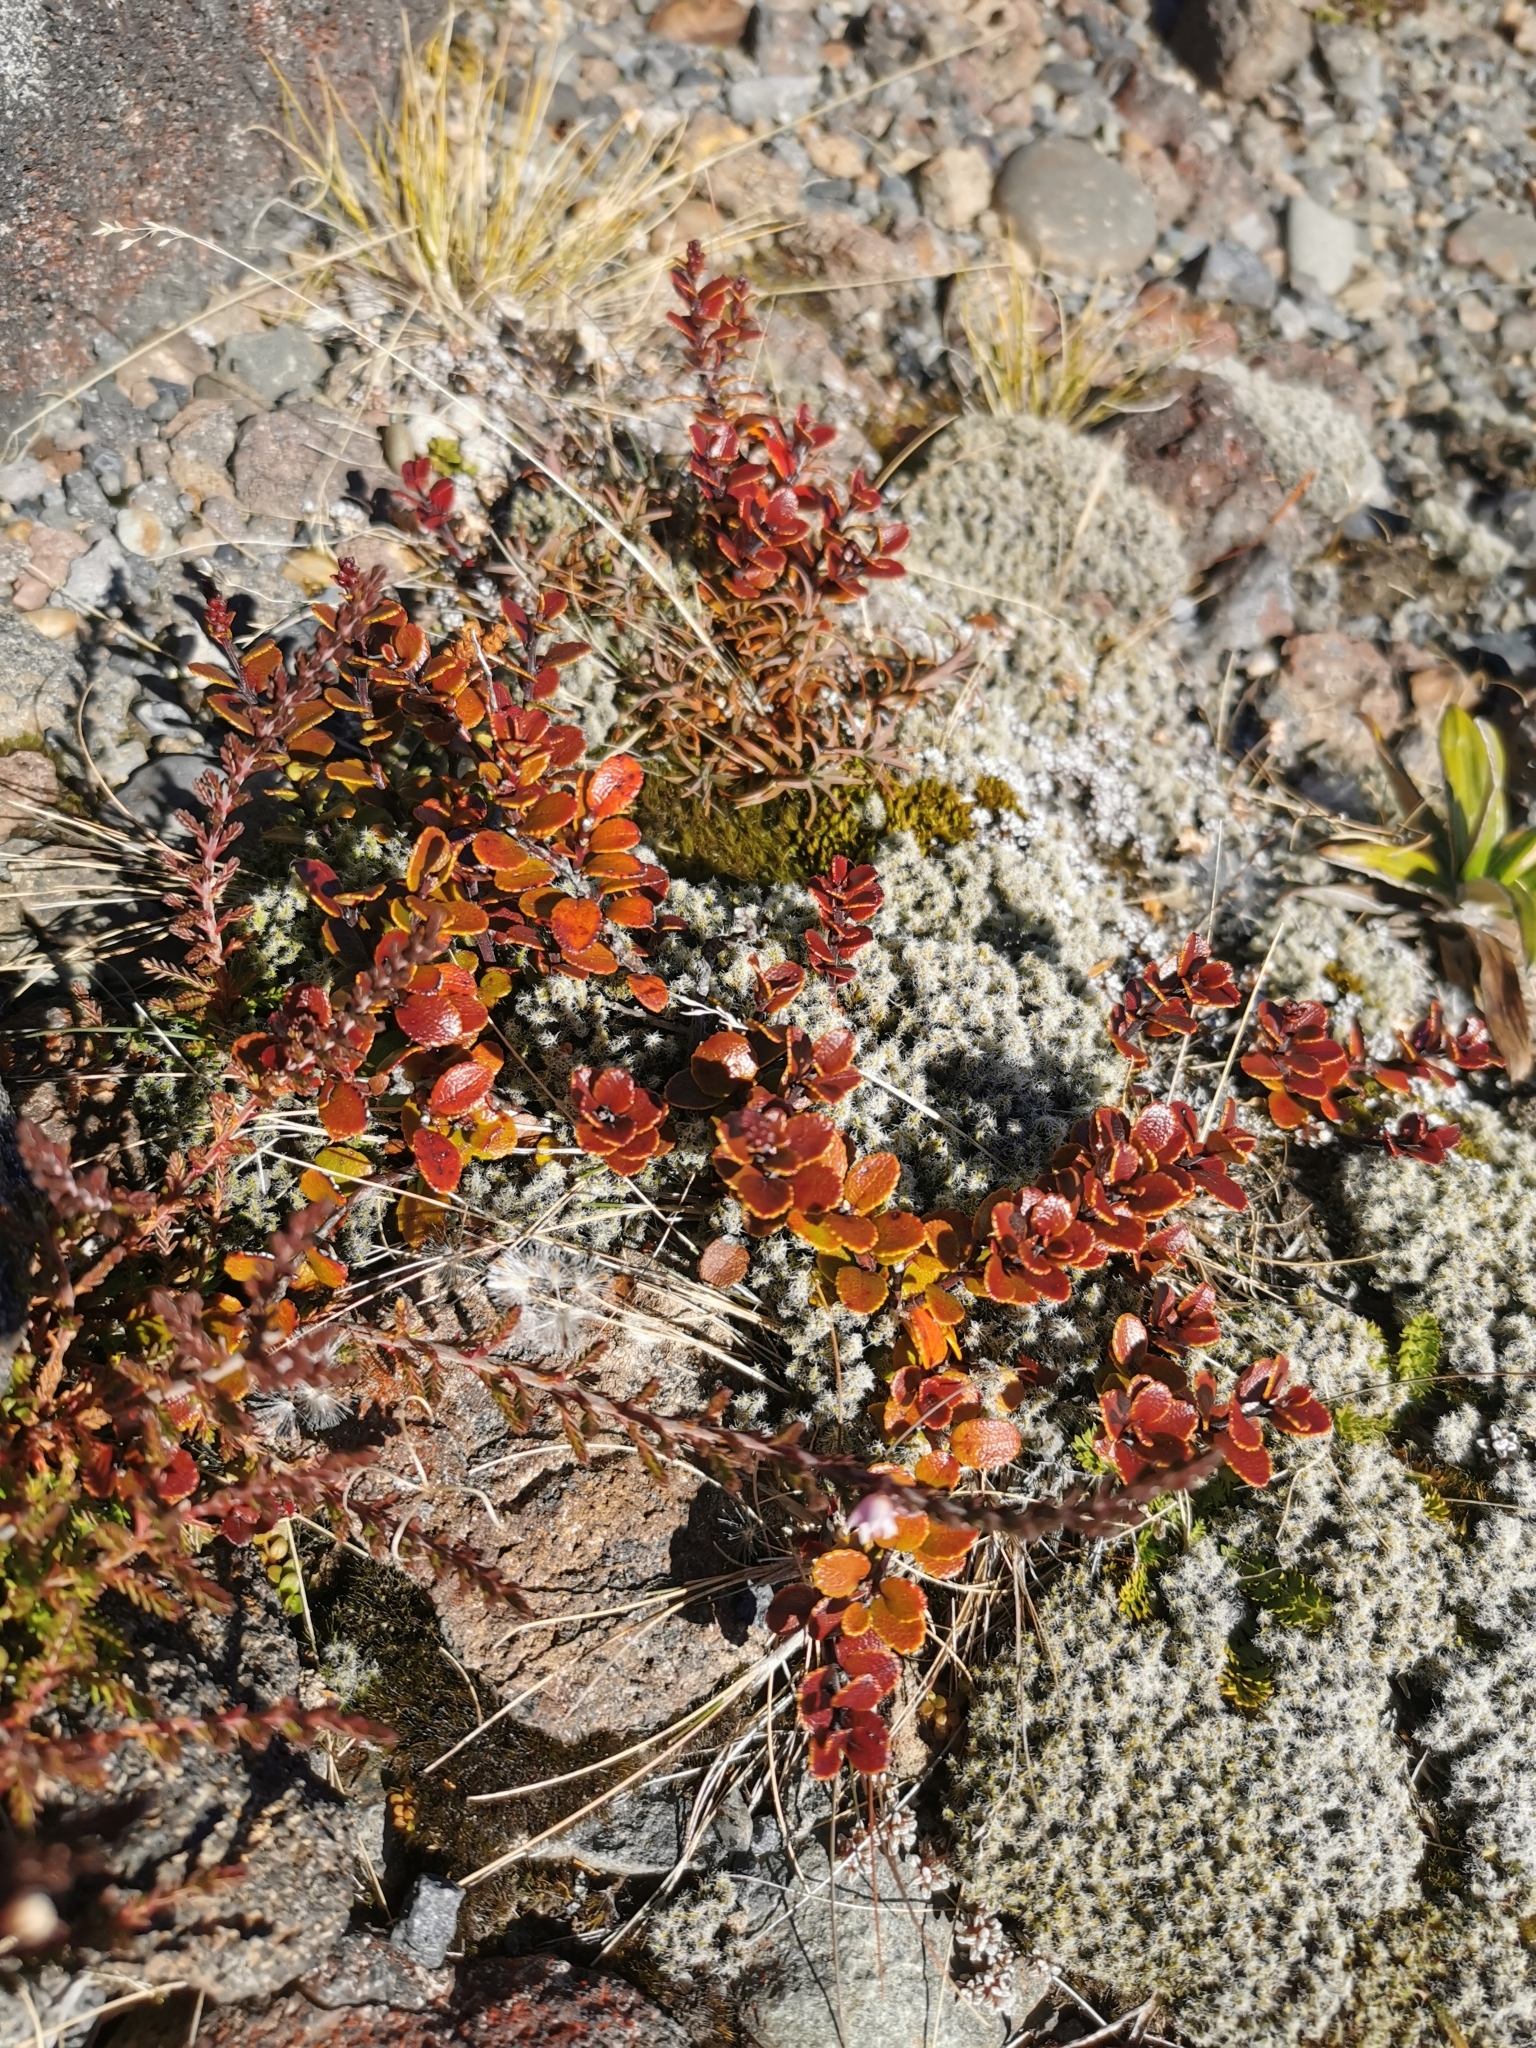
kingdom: Plantae
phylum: Tracheophyta
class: Magnoliopsida
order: Ericales
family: Ericaceae
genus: Gaultheria
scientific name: Gaultheria colensoi
